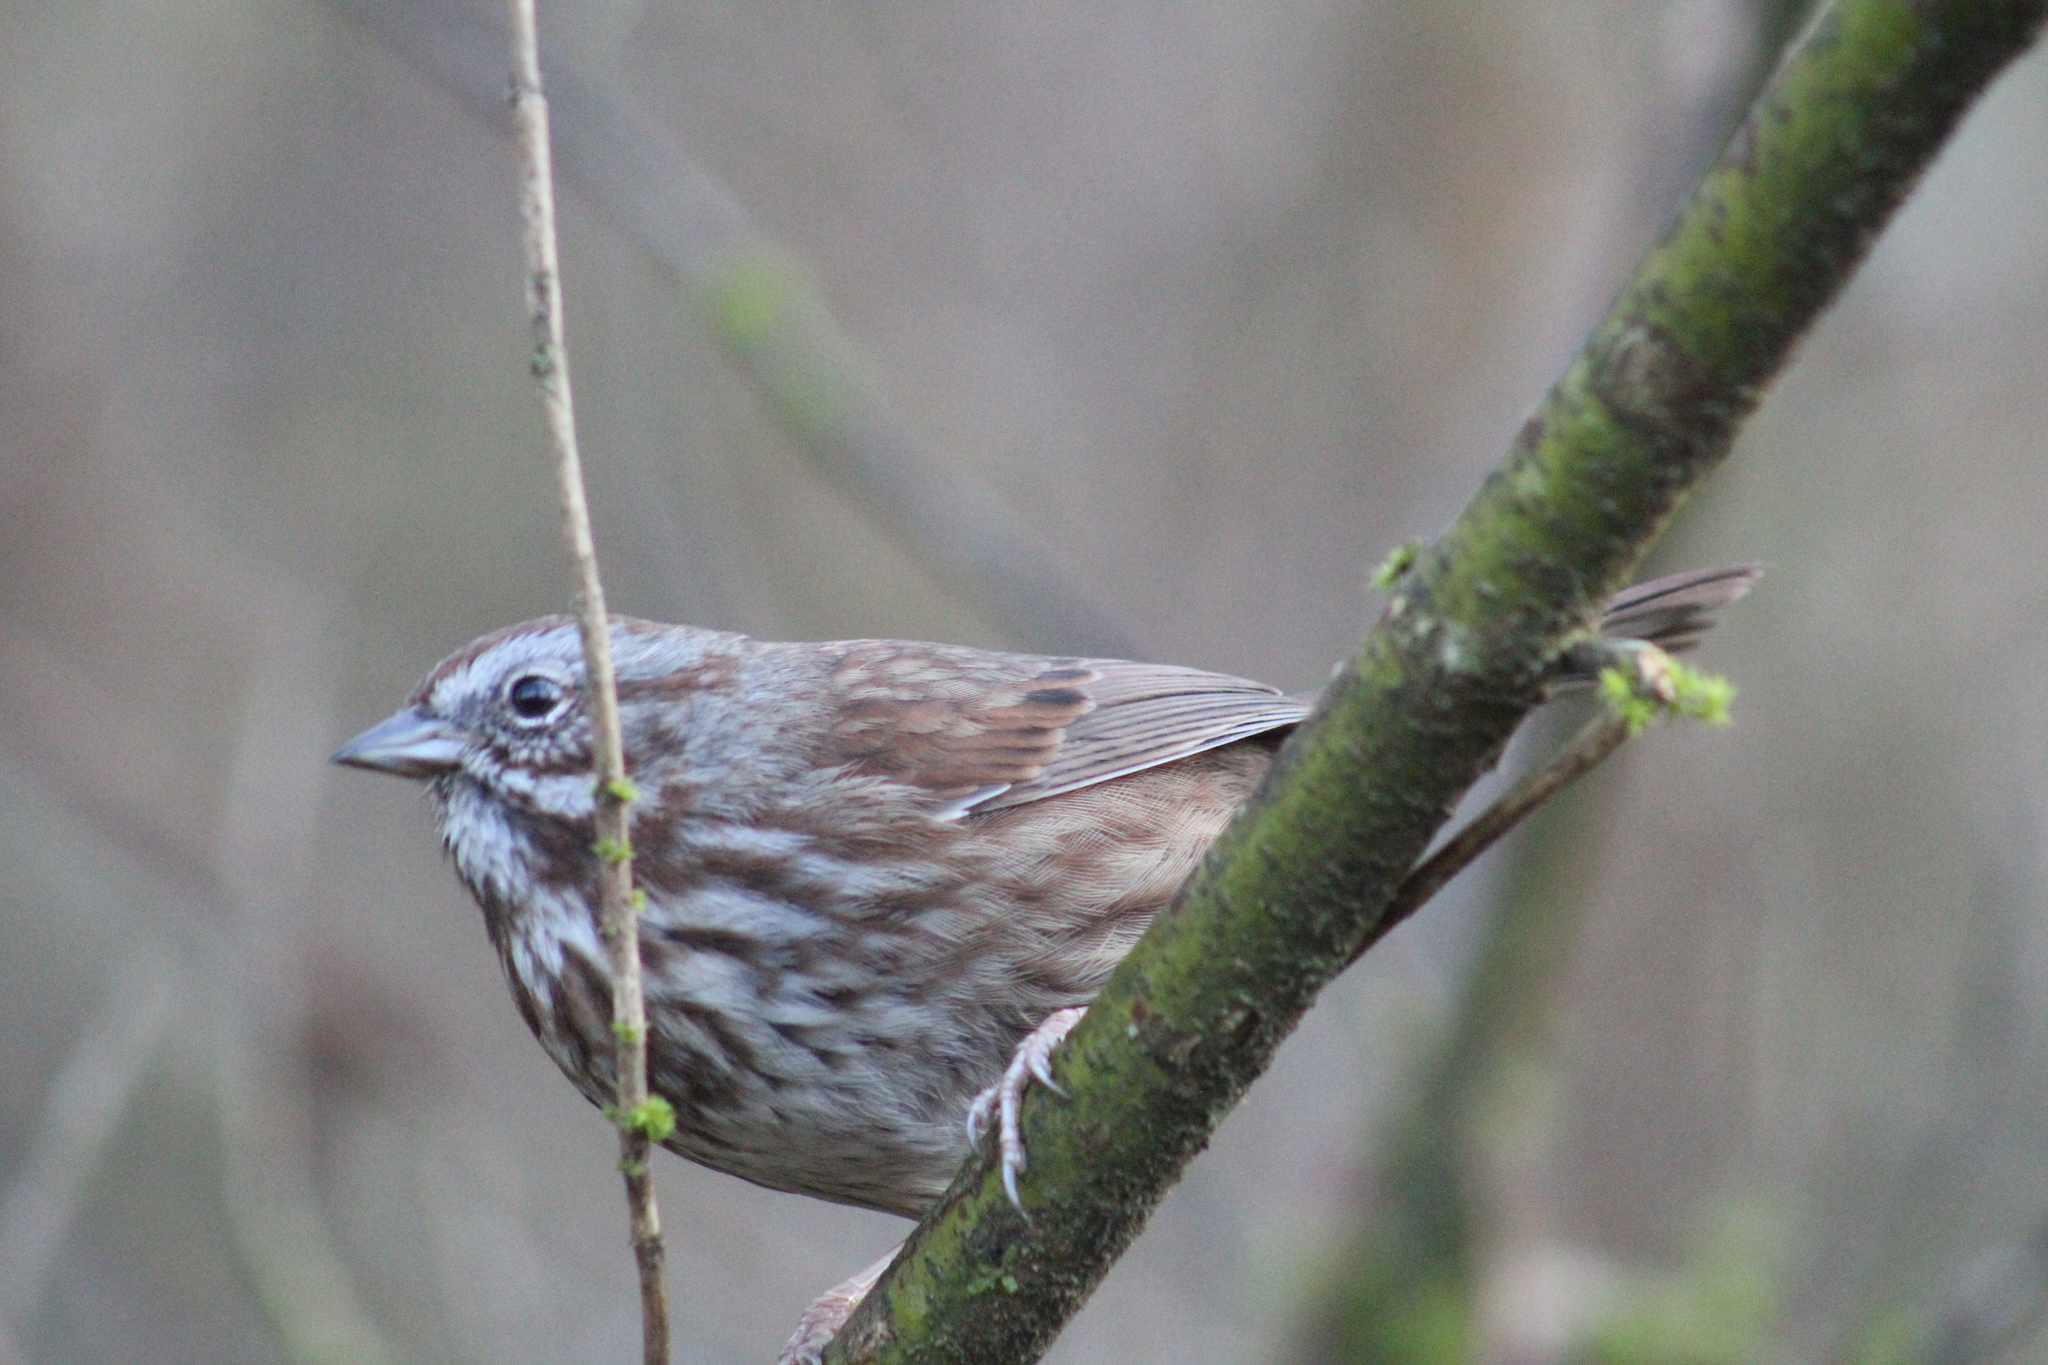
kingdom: Animalia
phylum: Chordata
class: Aves
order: Passeriformes
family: Passerellidae
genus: Melospiza
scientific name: Melospiza melodia
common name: Song sparrow
